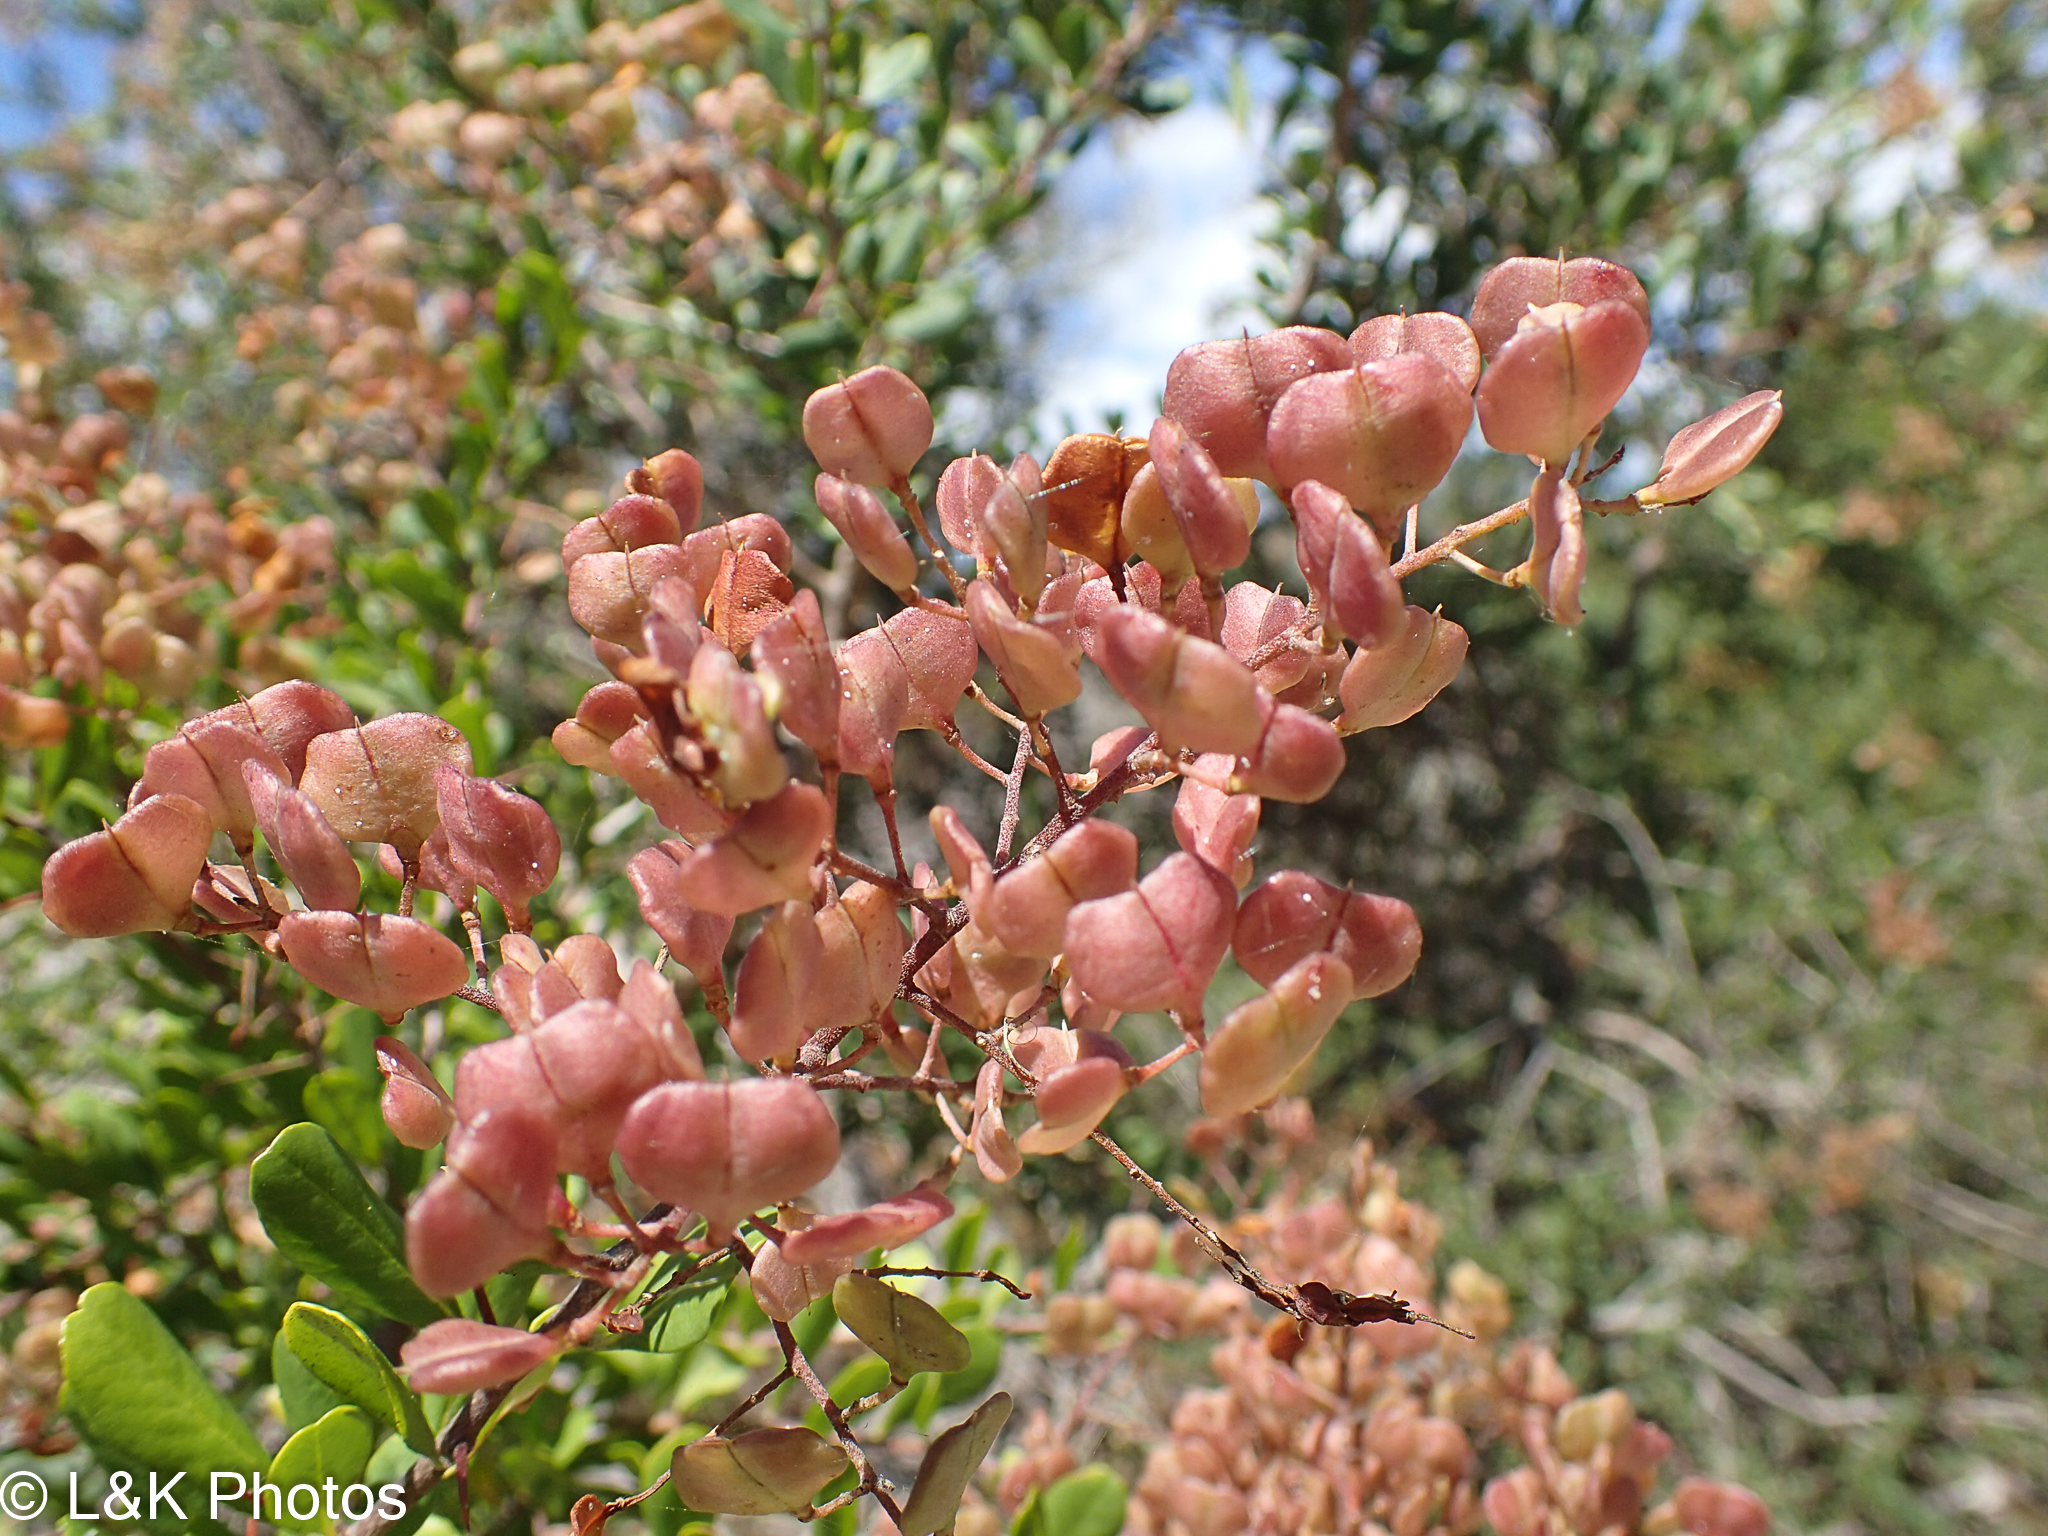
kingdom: Plantae
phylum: Tracheophyta
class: Magnoliopsida
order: Apiales
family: Pittosporaceae
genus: Bursaria
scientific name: Bursaria spinosa
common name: Australian blackthorn
